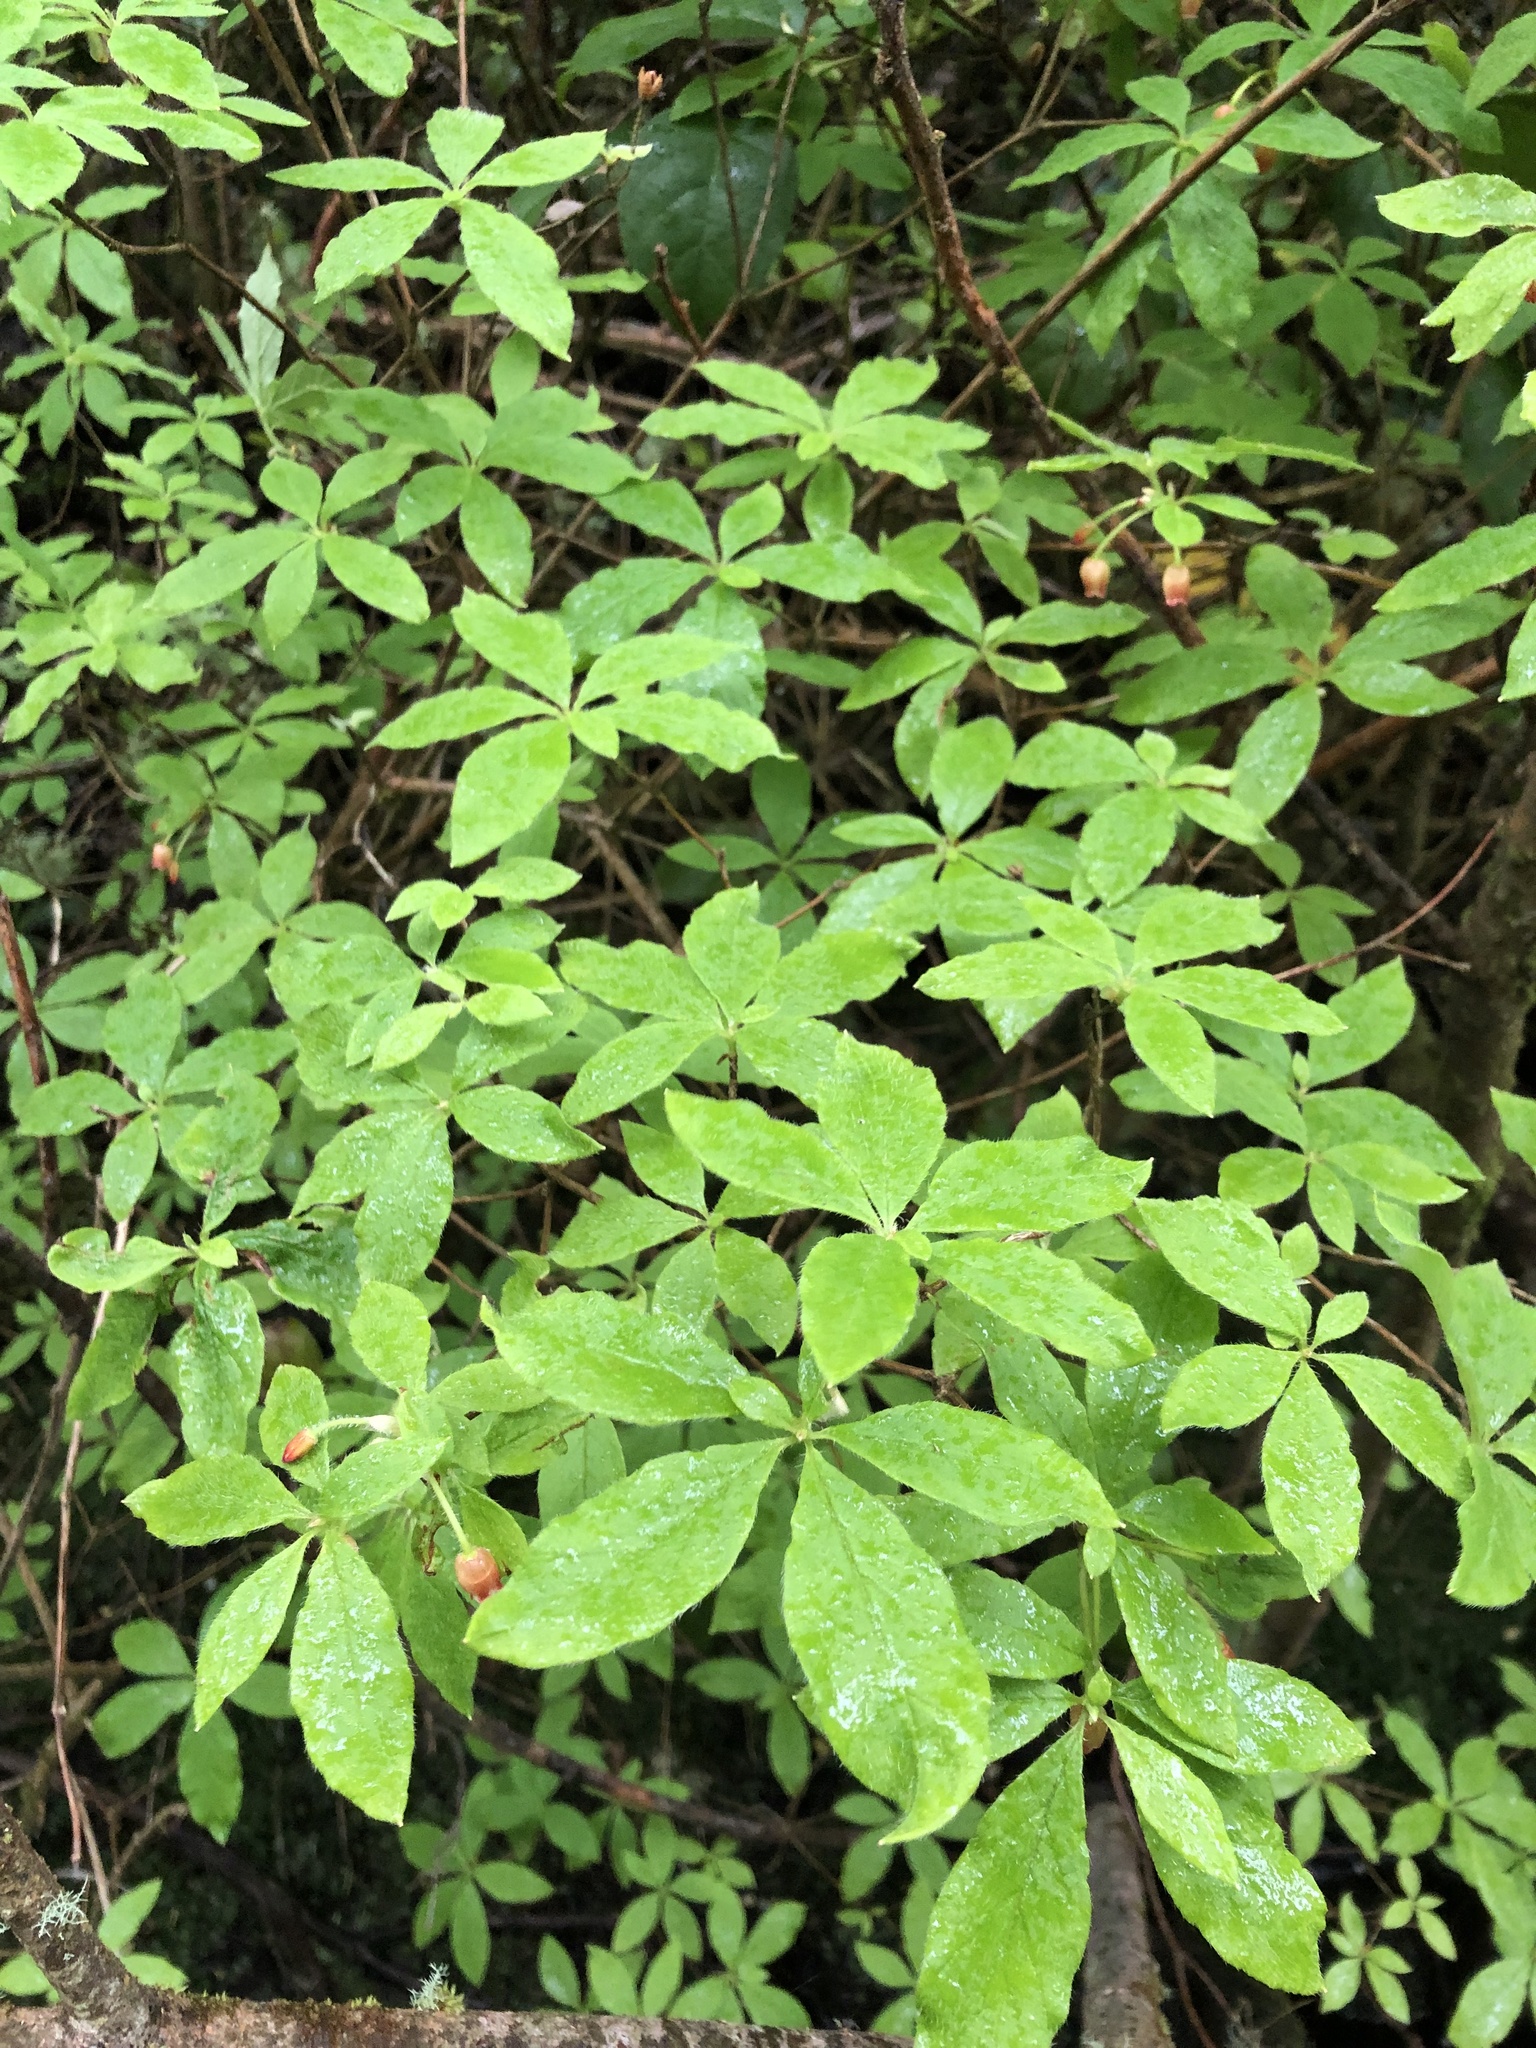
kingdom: Plantae
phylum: Tracheophyta
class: Magnoliopsida
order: Ericales
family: Ericaceae
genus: Rhododendron
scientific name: Rhododendron menziesii
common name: Pacific menziesia
